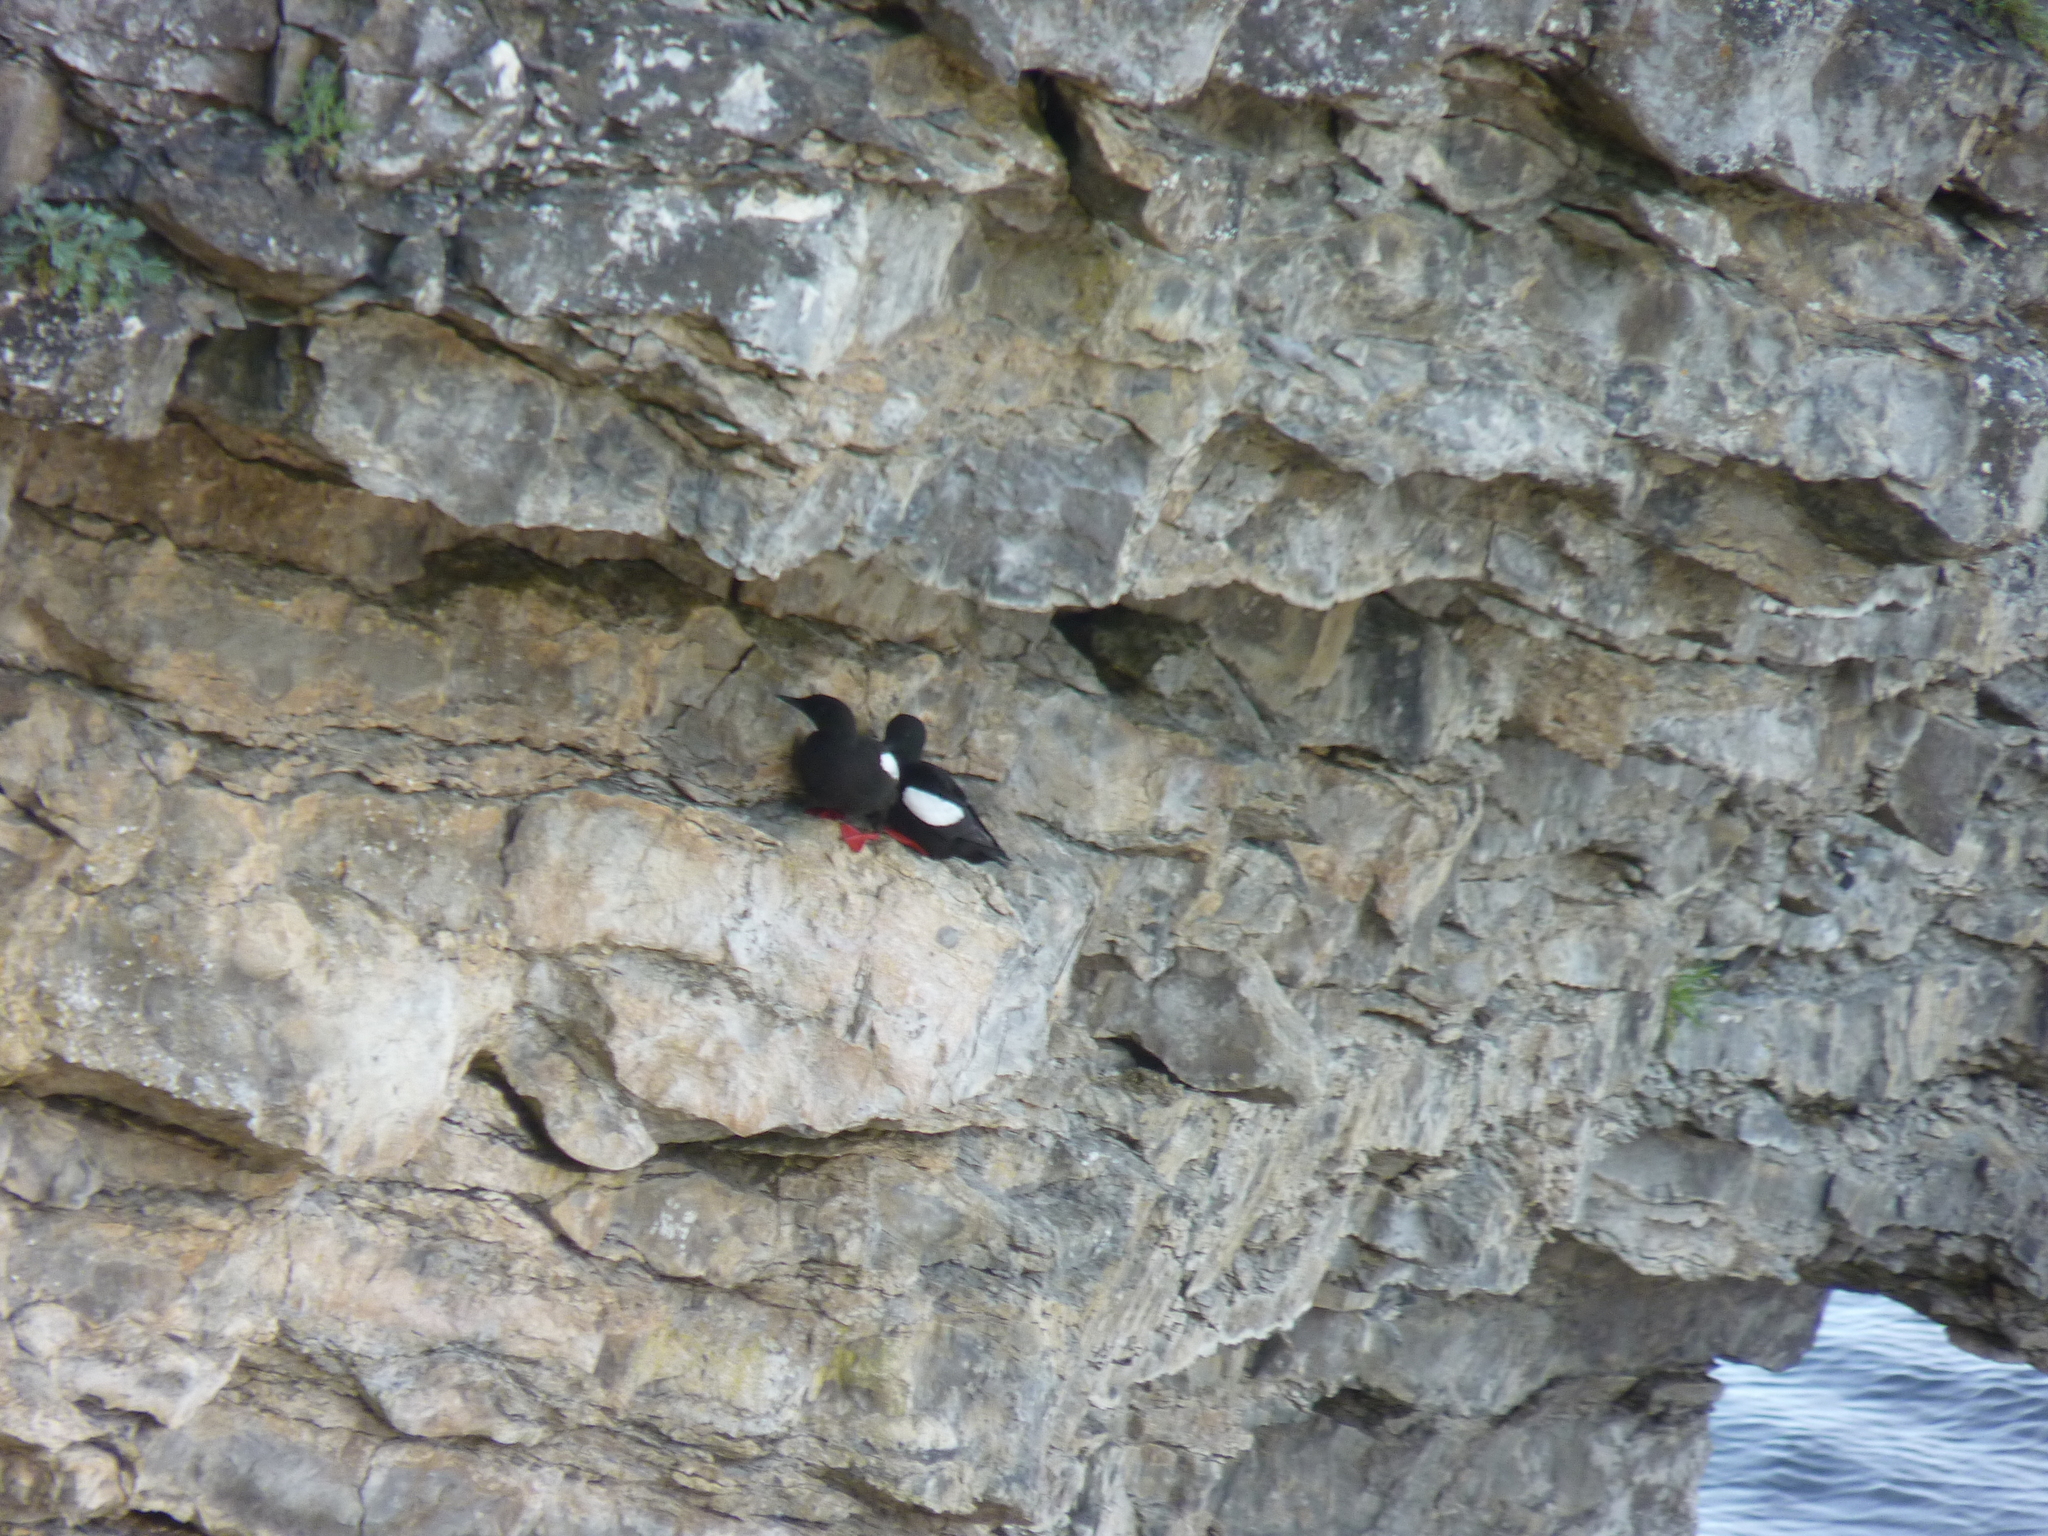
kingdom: Animalia
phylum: Chordata
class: Aves
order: Charadriiformes
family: Alcidae
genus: Cepphus
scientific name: Cepphus grylle
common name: Black guillemot
